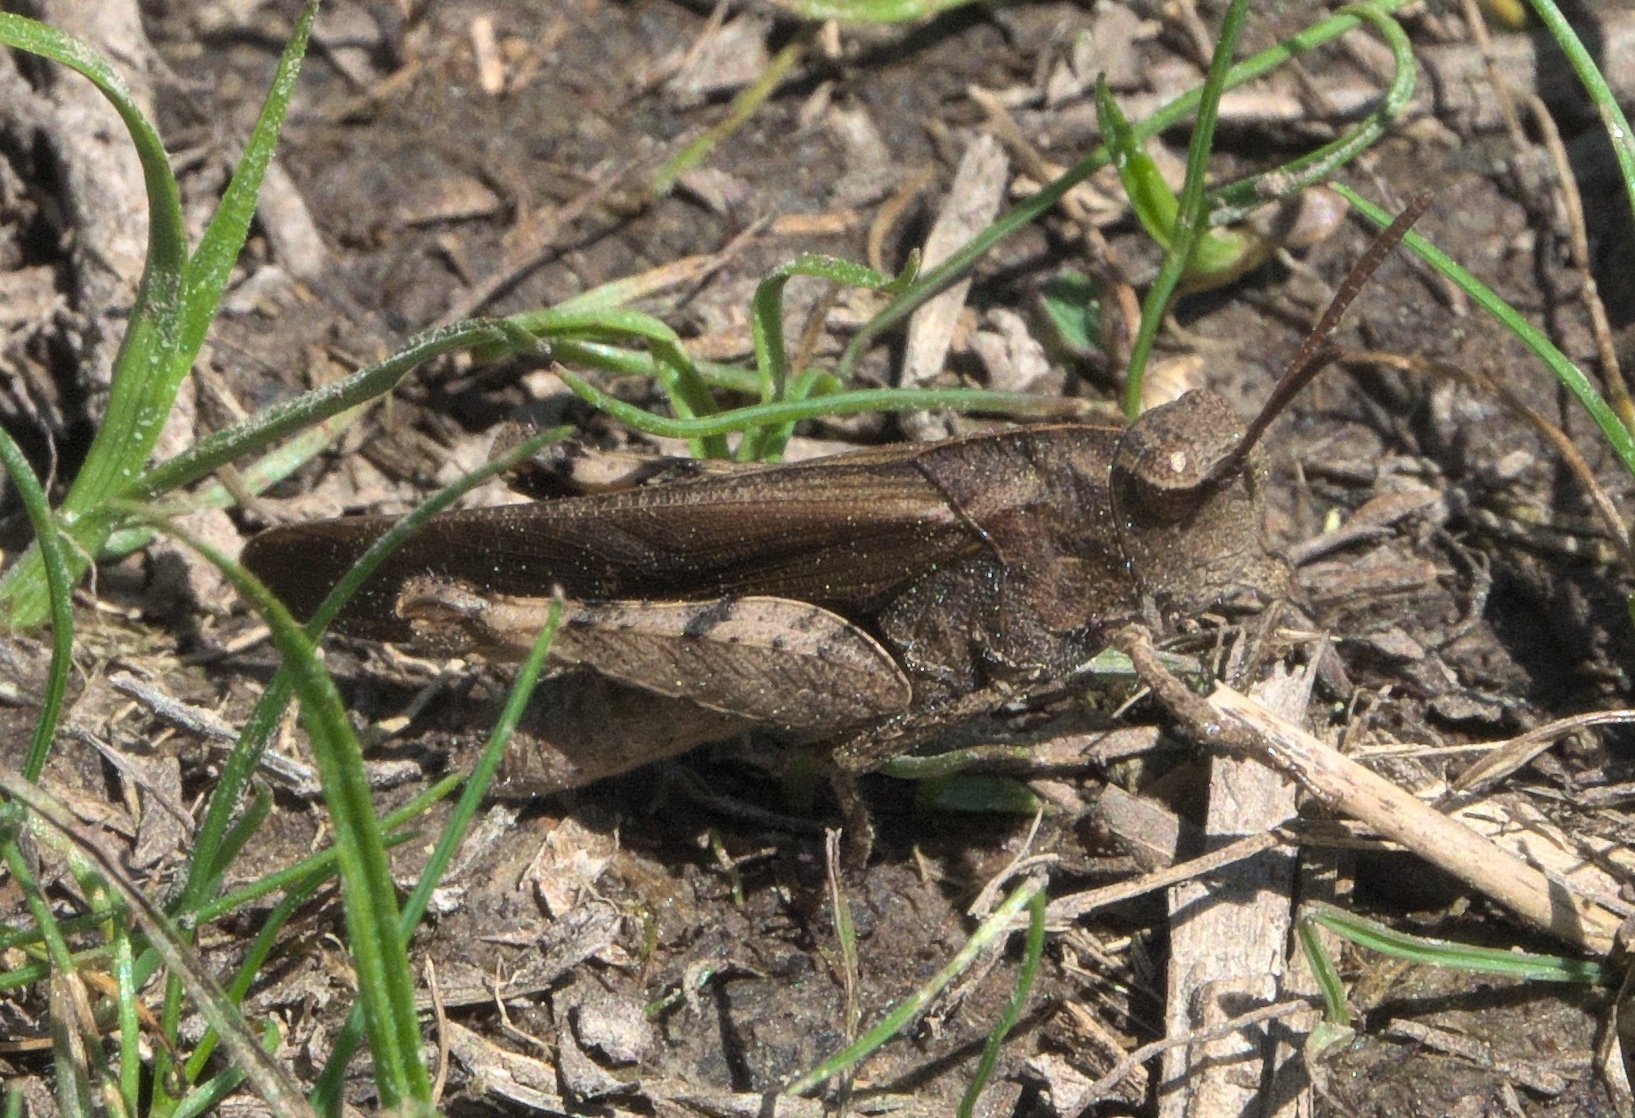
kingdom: Animalia
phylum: Arthropoda
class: Insecta
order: Orthoptera
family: Acrididae
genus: Chortophaga
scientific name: Chortophaga viridifasciata
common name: Green-striped grasshopper
